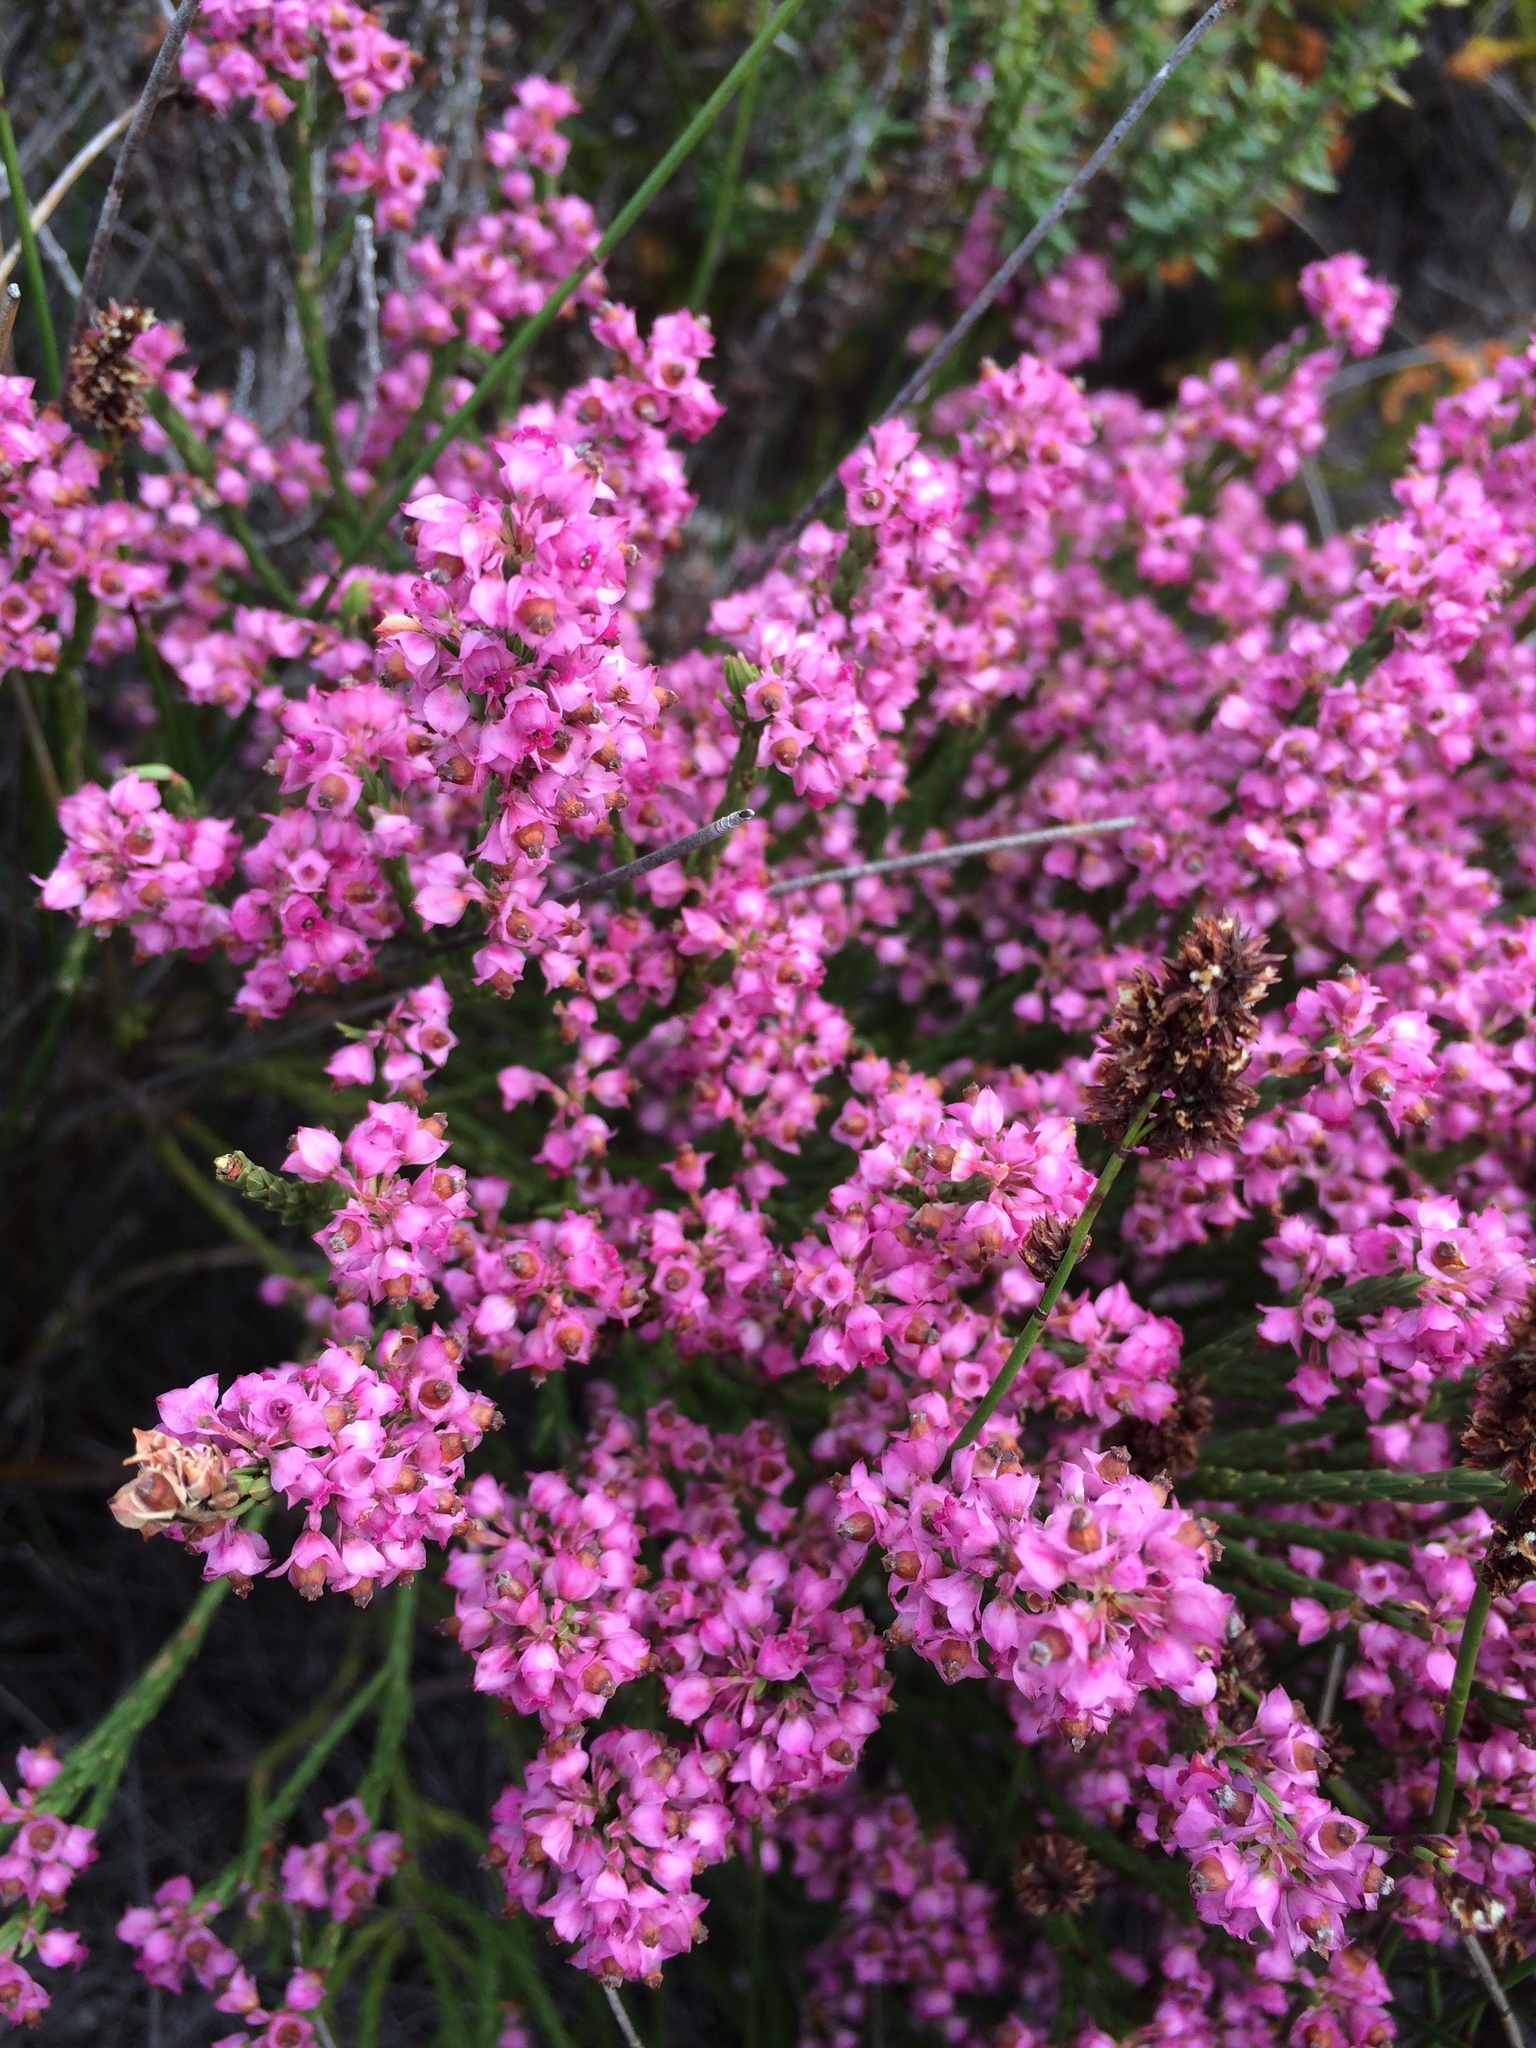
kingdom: Plantae
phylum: Tracheophyta
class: Magnoliopsida
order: Ericales
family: Ericaceae
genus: Erica
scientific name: Erica corifolia
